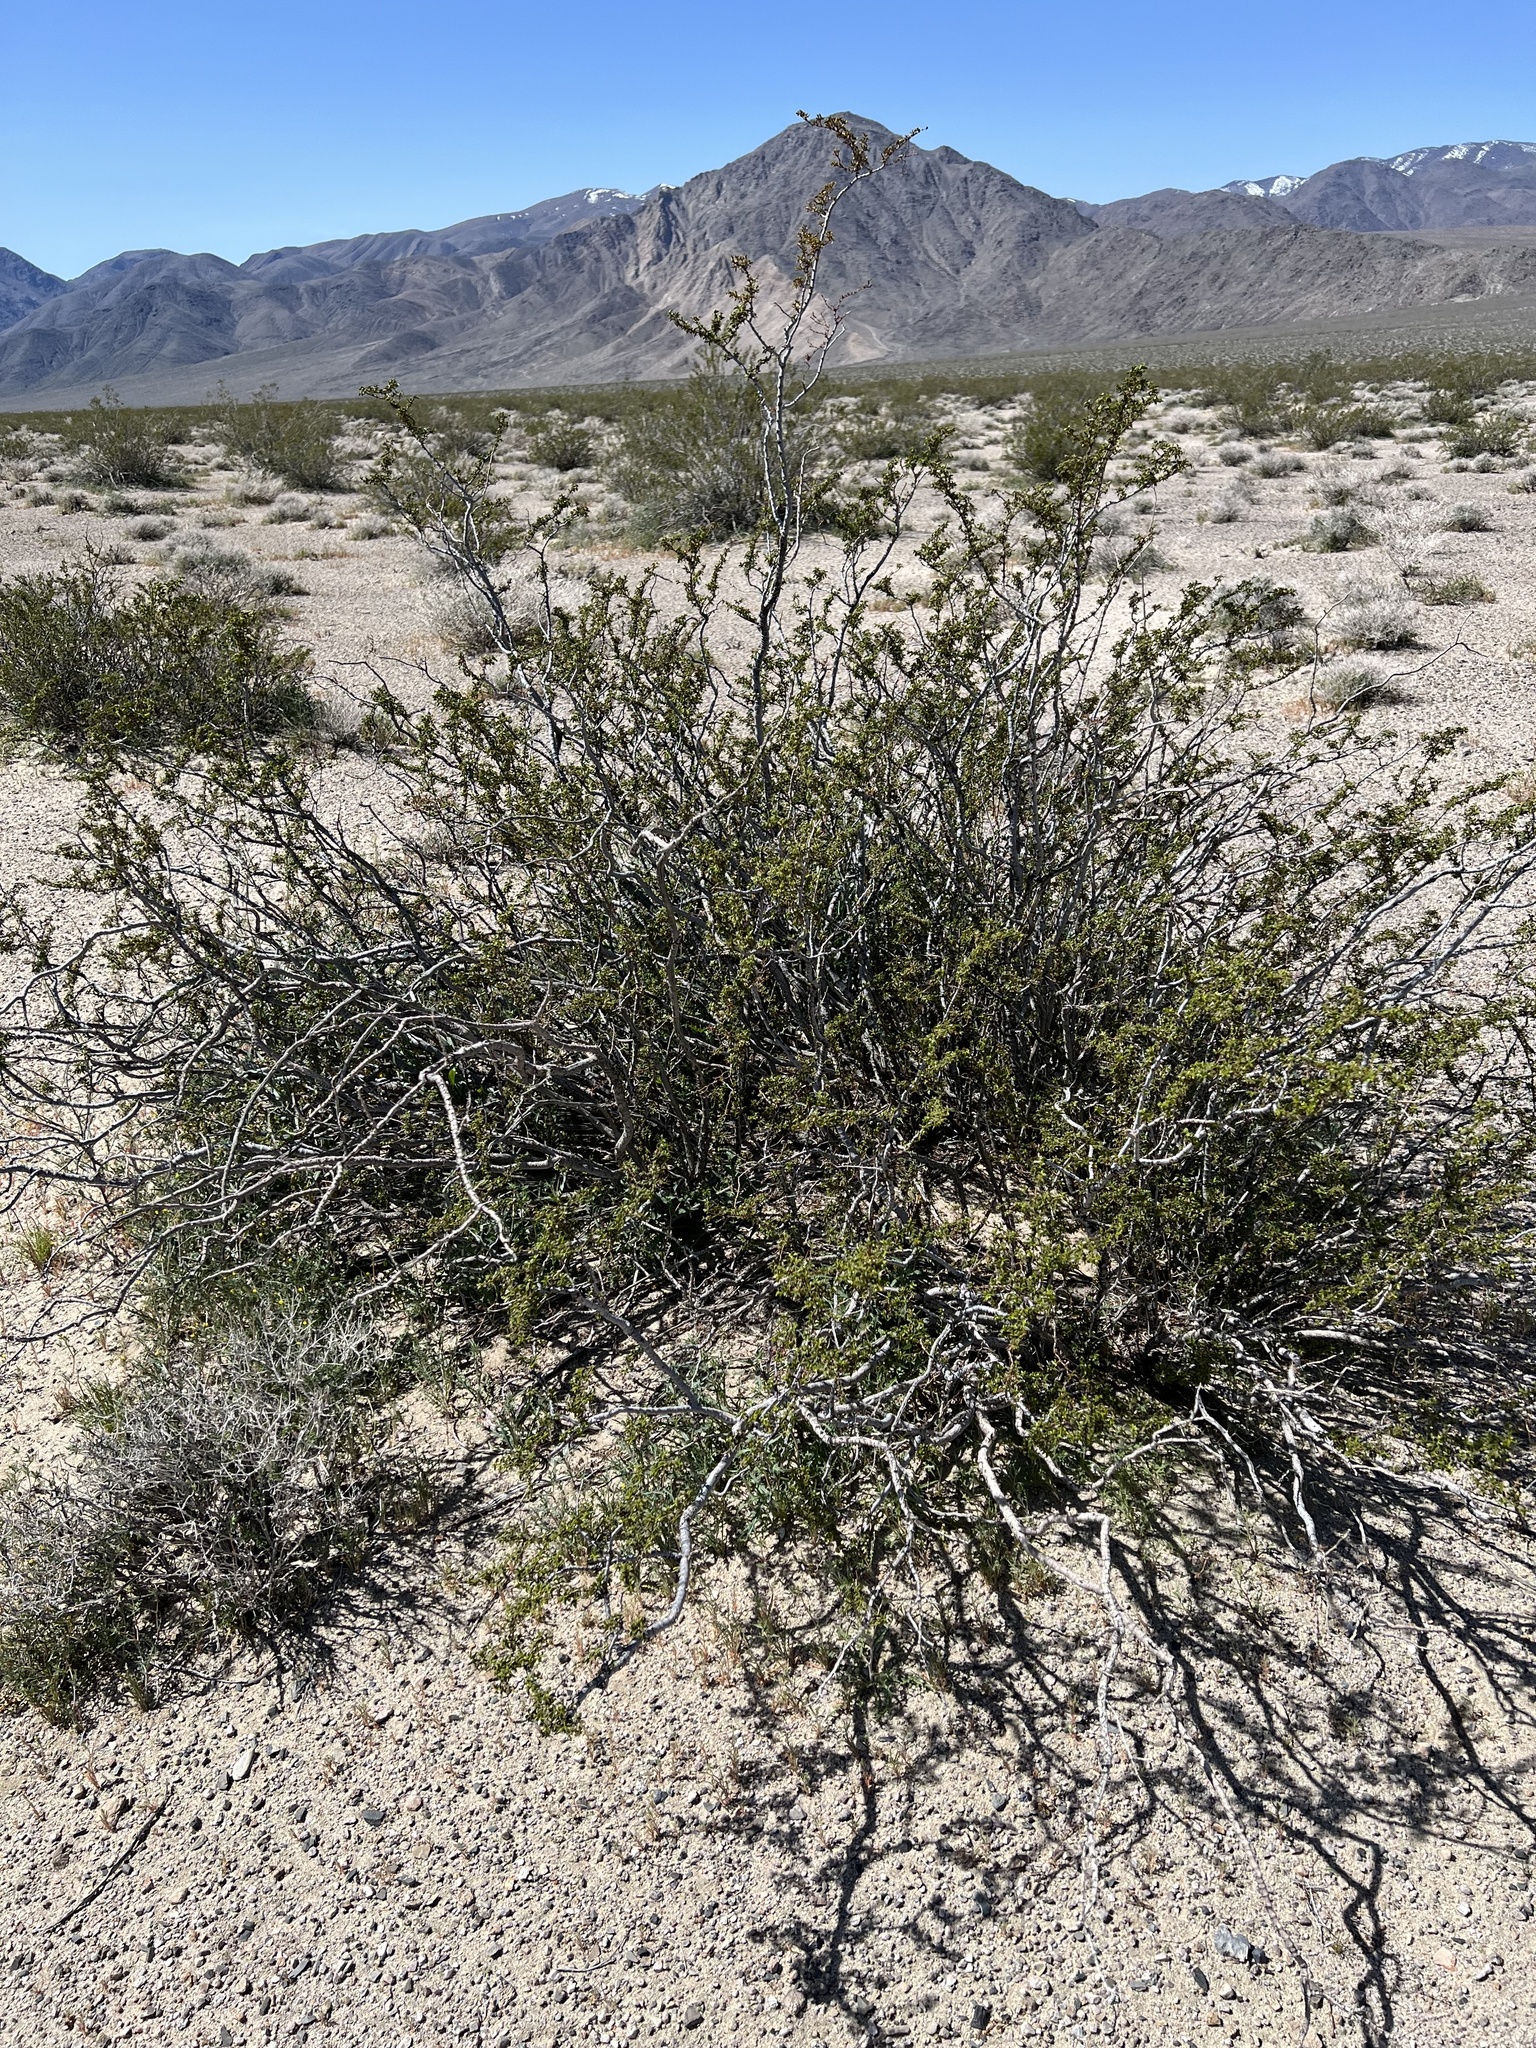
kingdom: Plantae
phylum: Tracheophyta
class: Magnoliopsida
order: Zygophyllales
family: Zygophyllaceae
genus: Larrea
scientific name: Larrea tridentata
